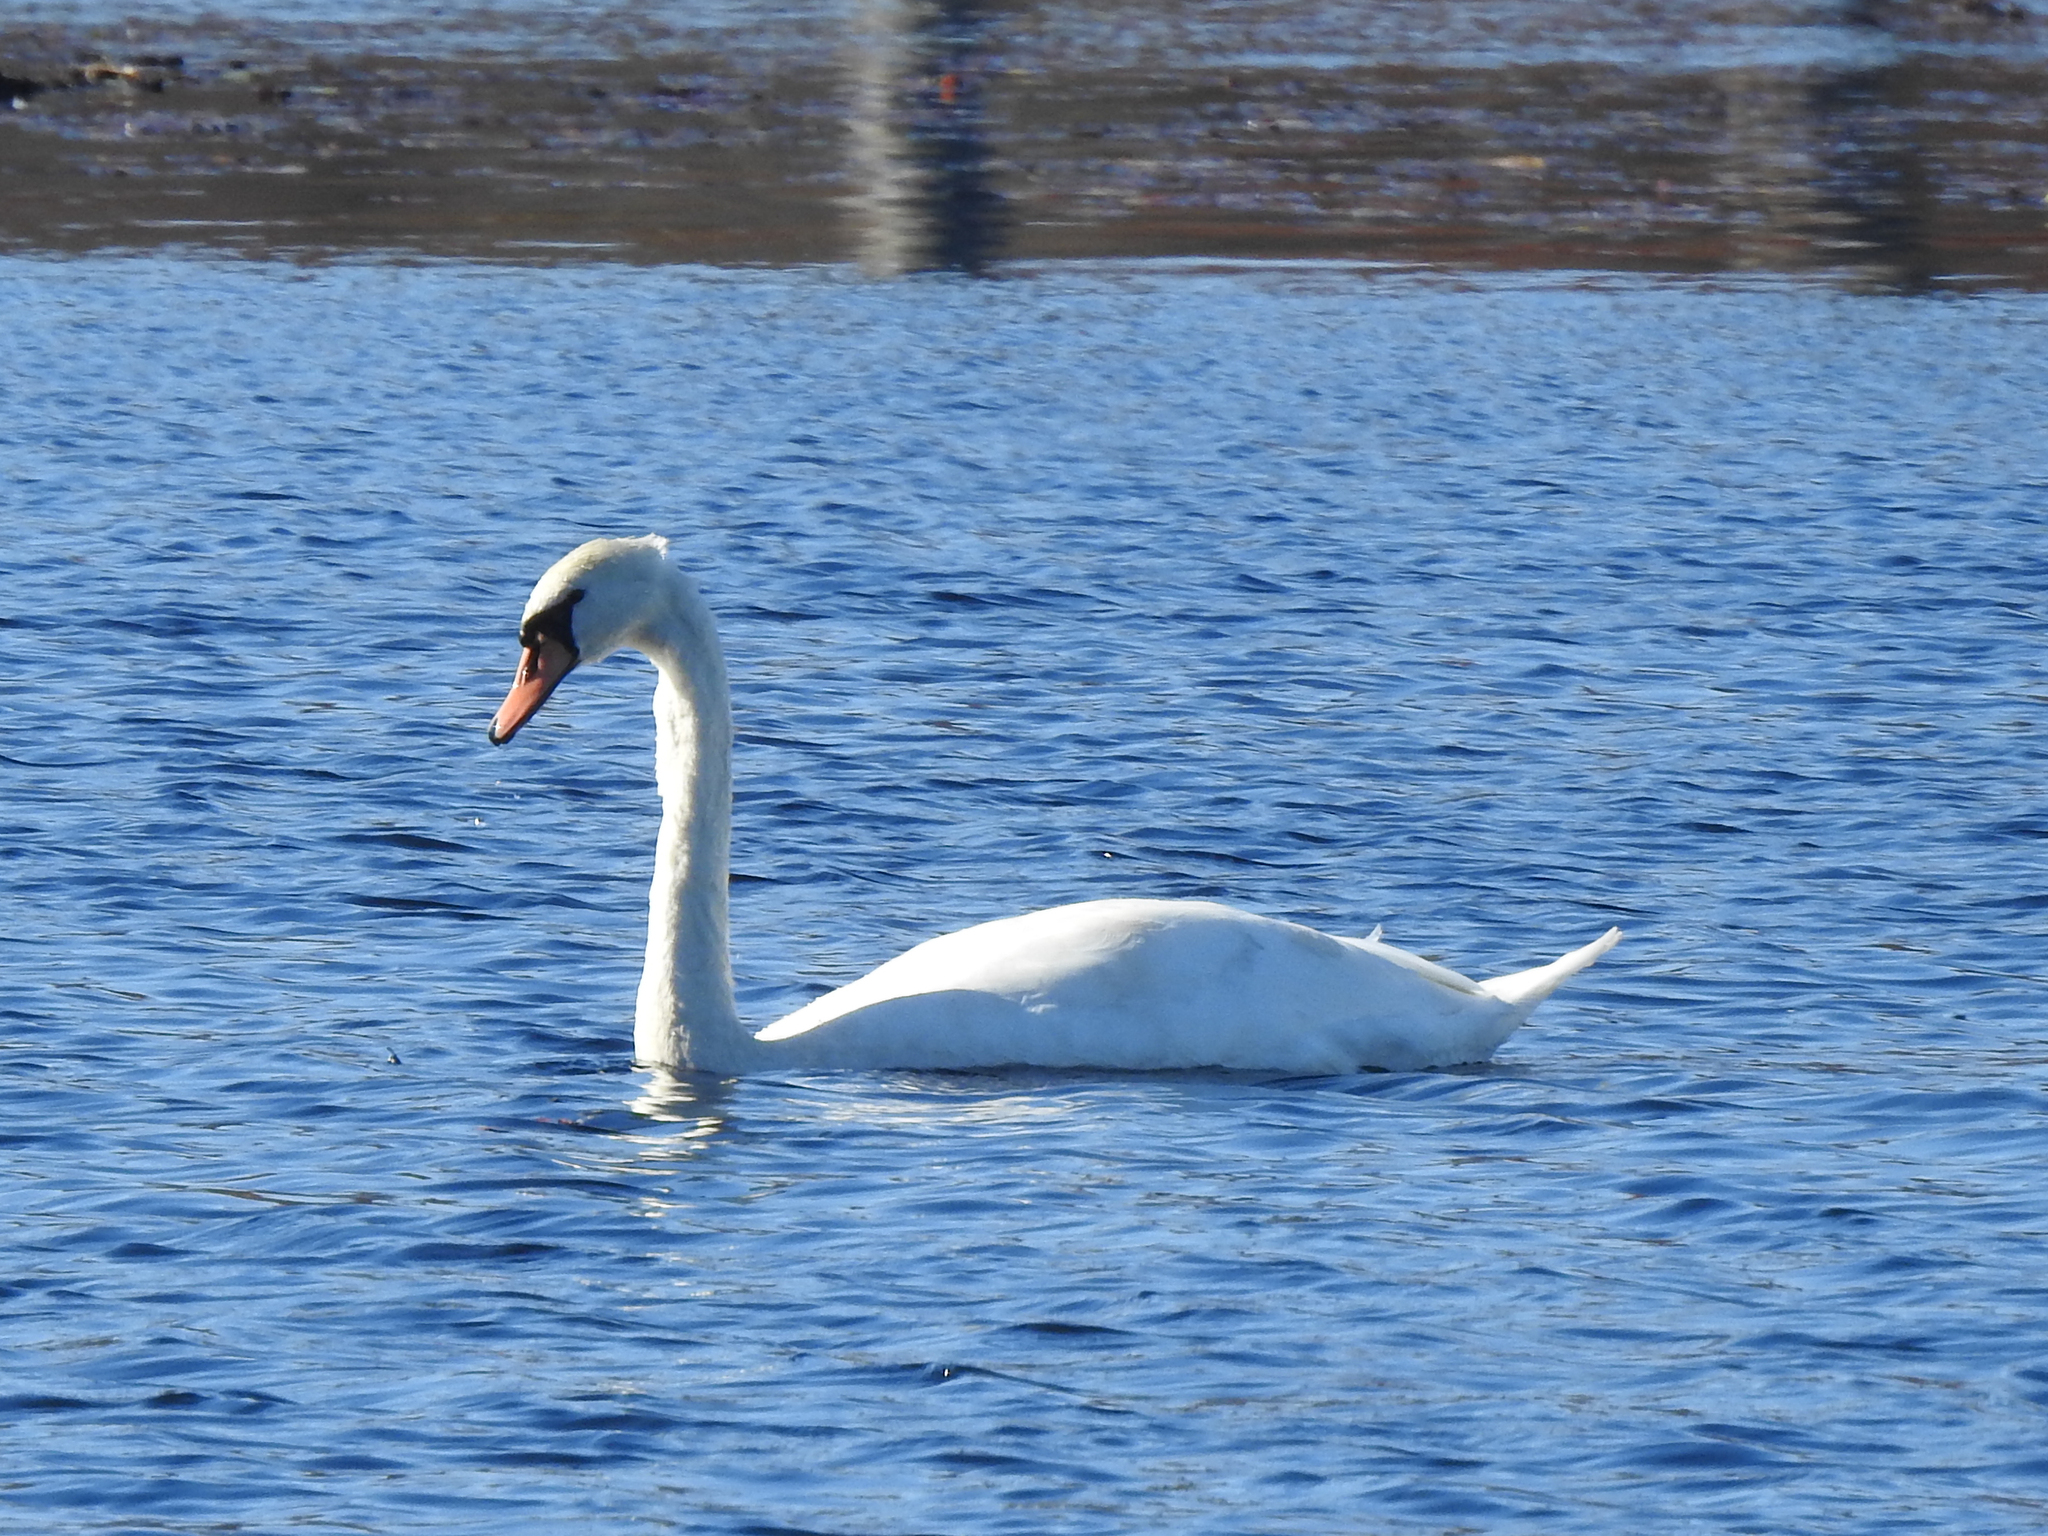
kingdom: Animalia
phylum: Chordata
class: Aves
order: Anseriformes
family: Anatidae
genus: Cygnus
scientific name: Cygnus olor
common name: Mute swan
